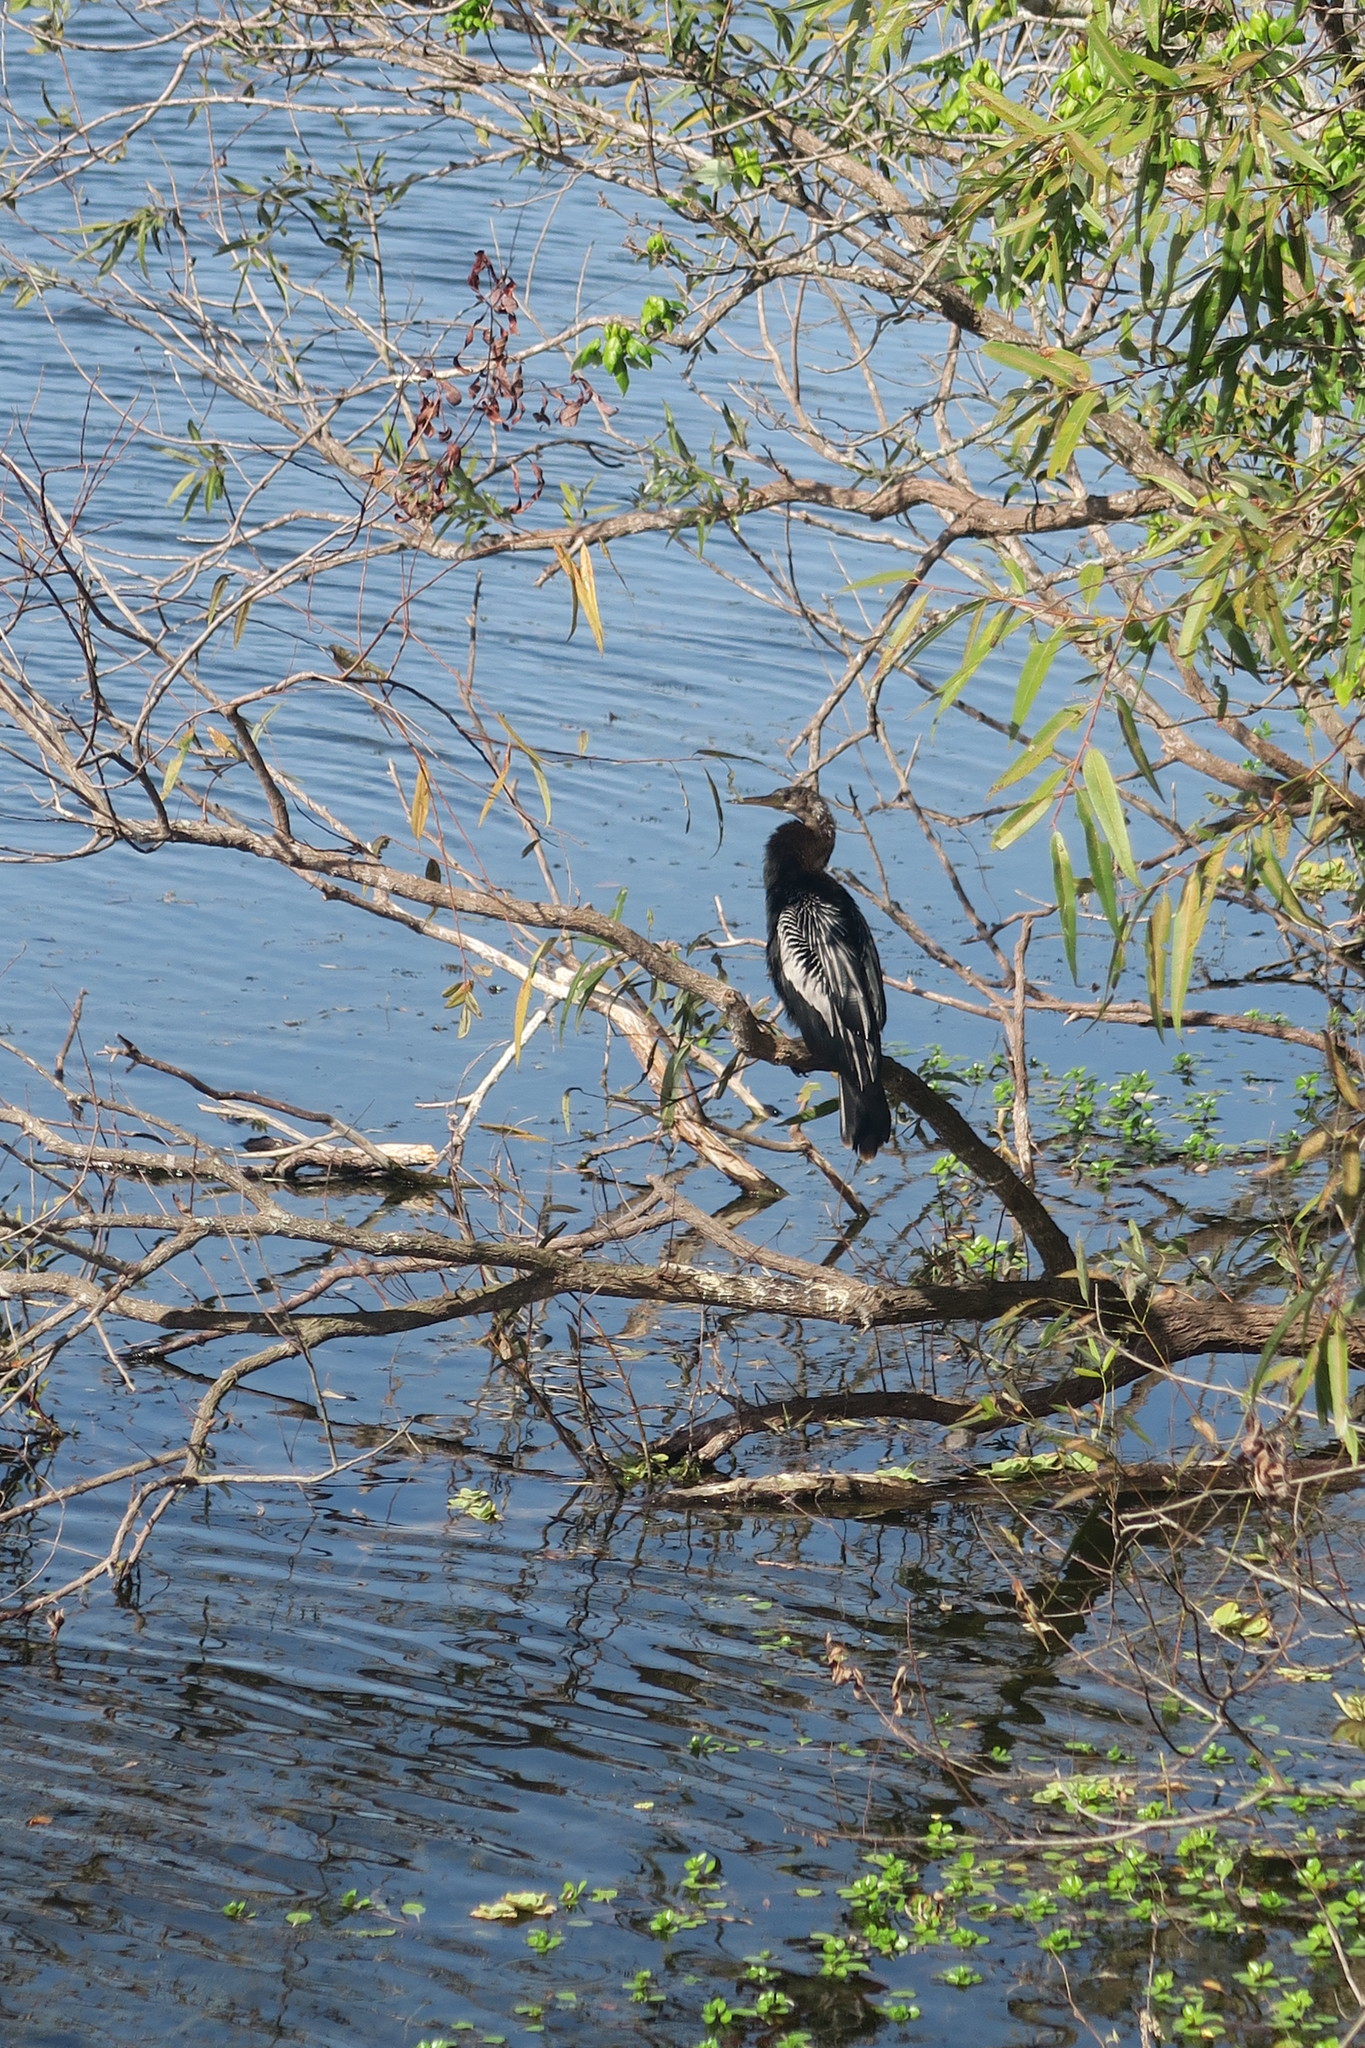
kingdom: Animalia
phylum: Chordata
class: Aves
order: Suliformes
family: Anhingidae
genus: Anhinga
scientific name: Anhinga anhinga
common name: Anhinga
